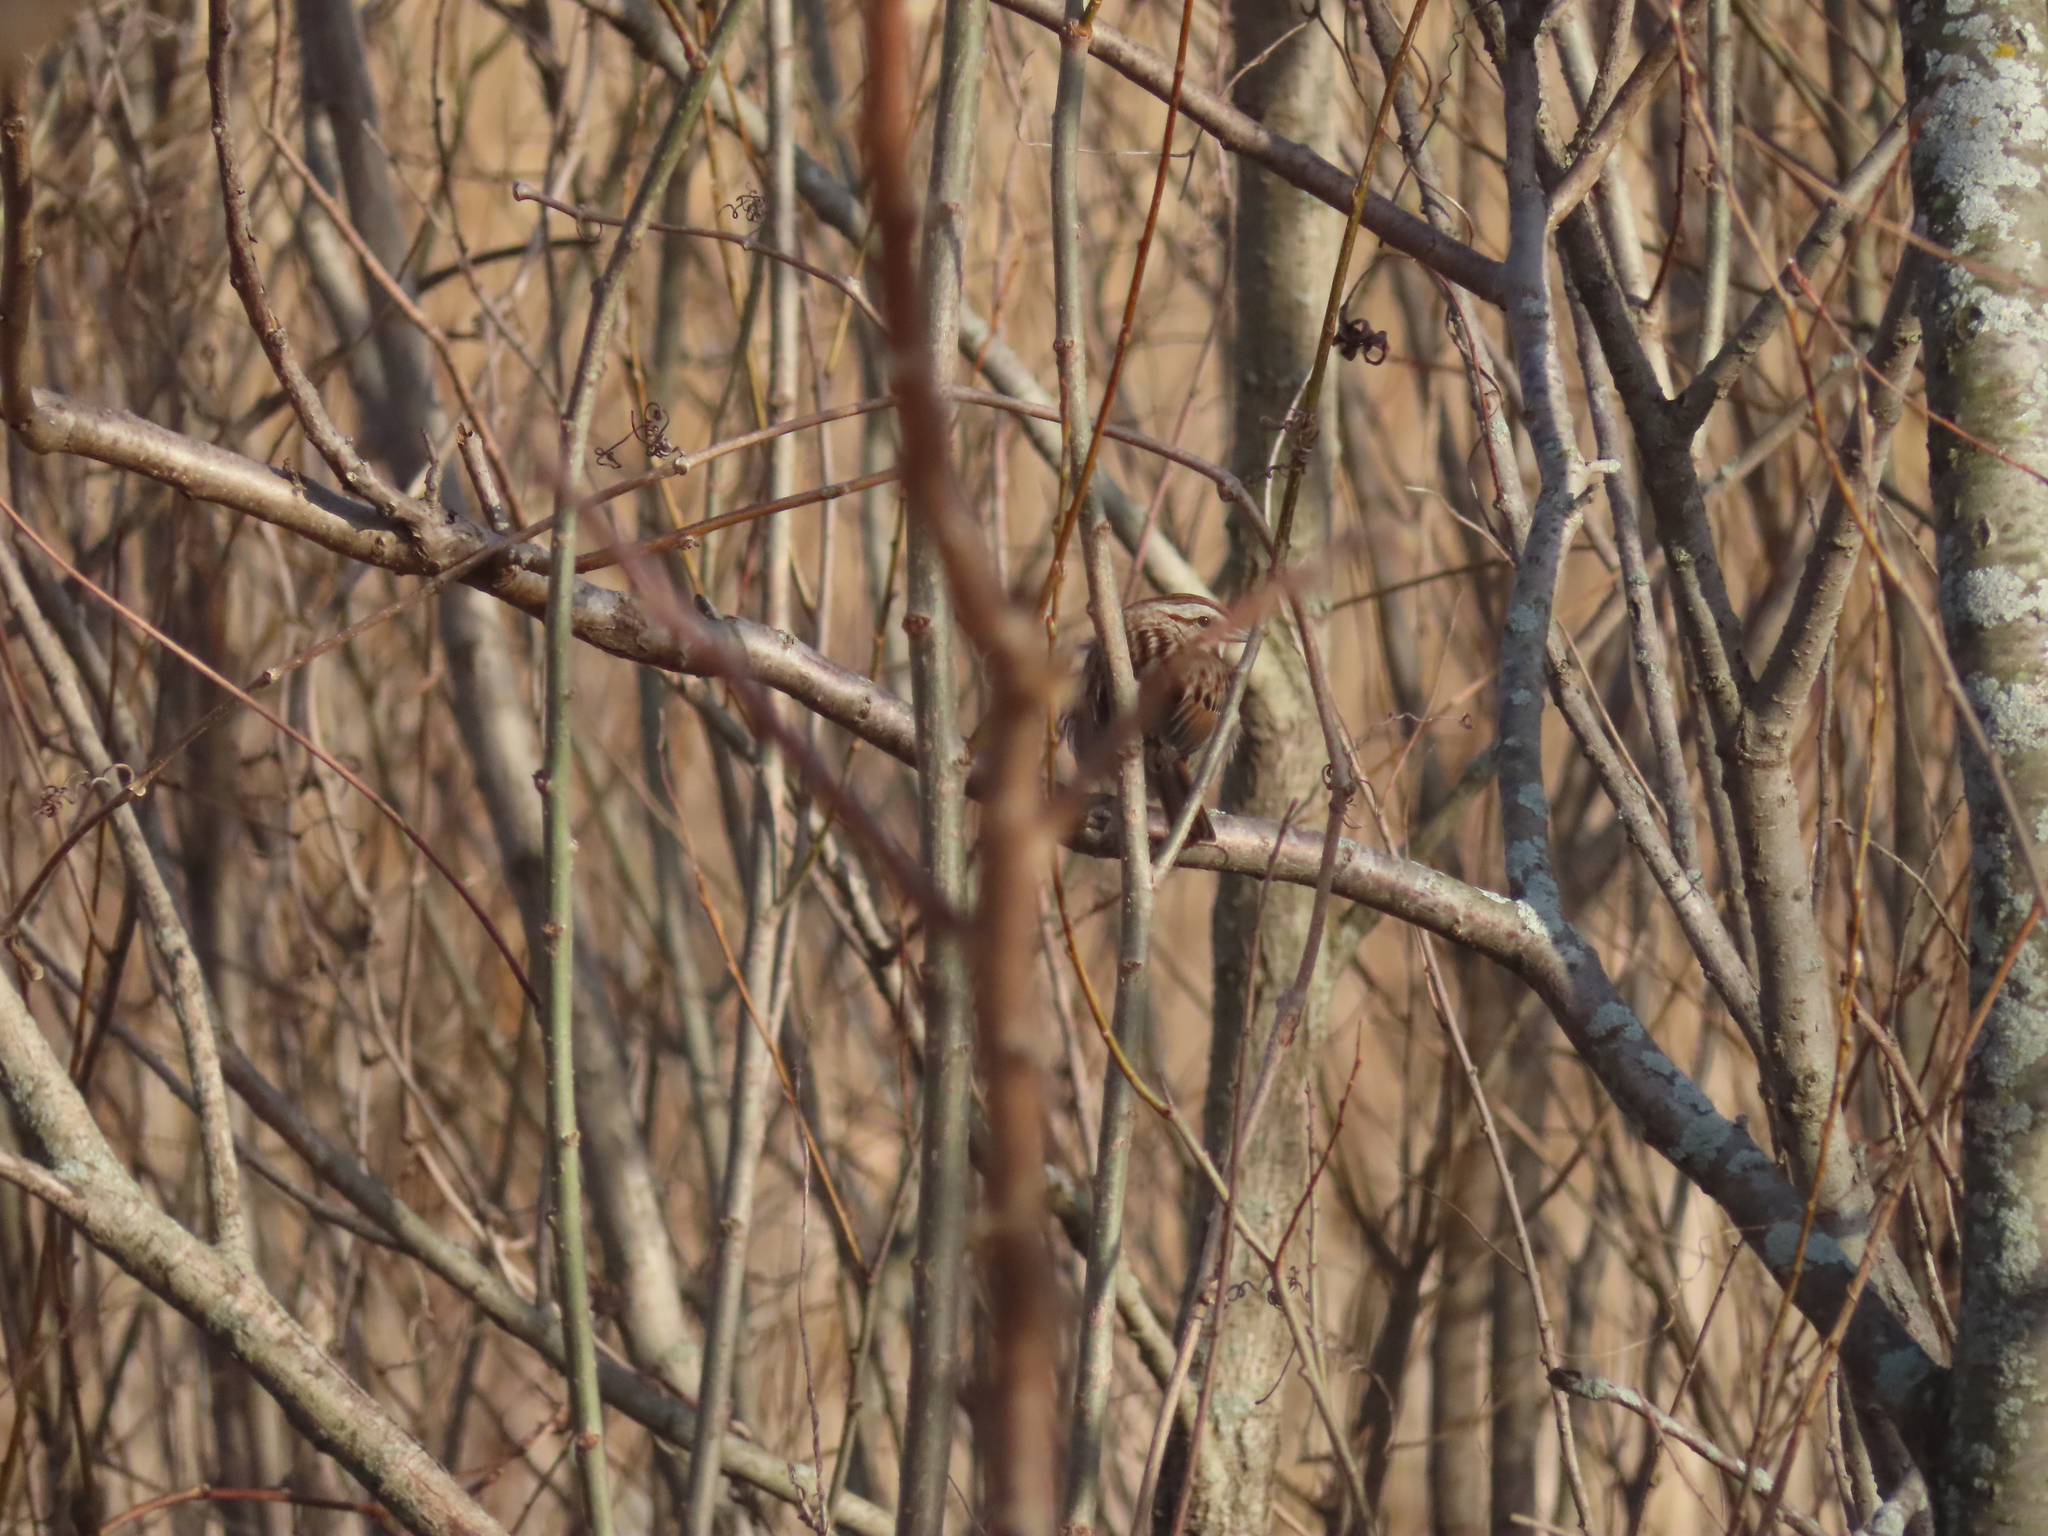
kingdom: Animalia
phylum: Chordata
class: Aves
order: Passeriformes
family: Passerellidae
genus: Melospiza
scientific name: Melospiza melodia
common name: Song sparrow
